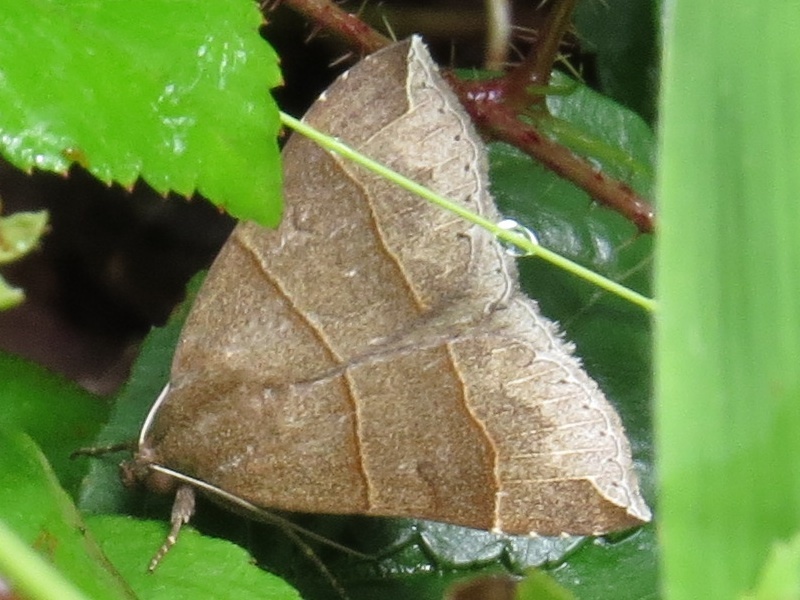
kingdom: Animalia
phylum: Arthropoda
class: Insecta
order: Lepidoptera
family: Erebidae
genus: Parallelia
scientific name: Parallelia bistriaris
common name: Maple looper moth
